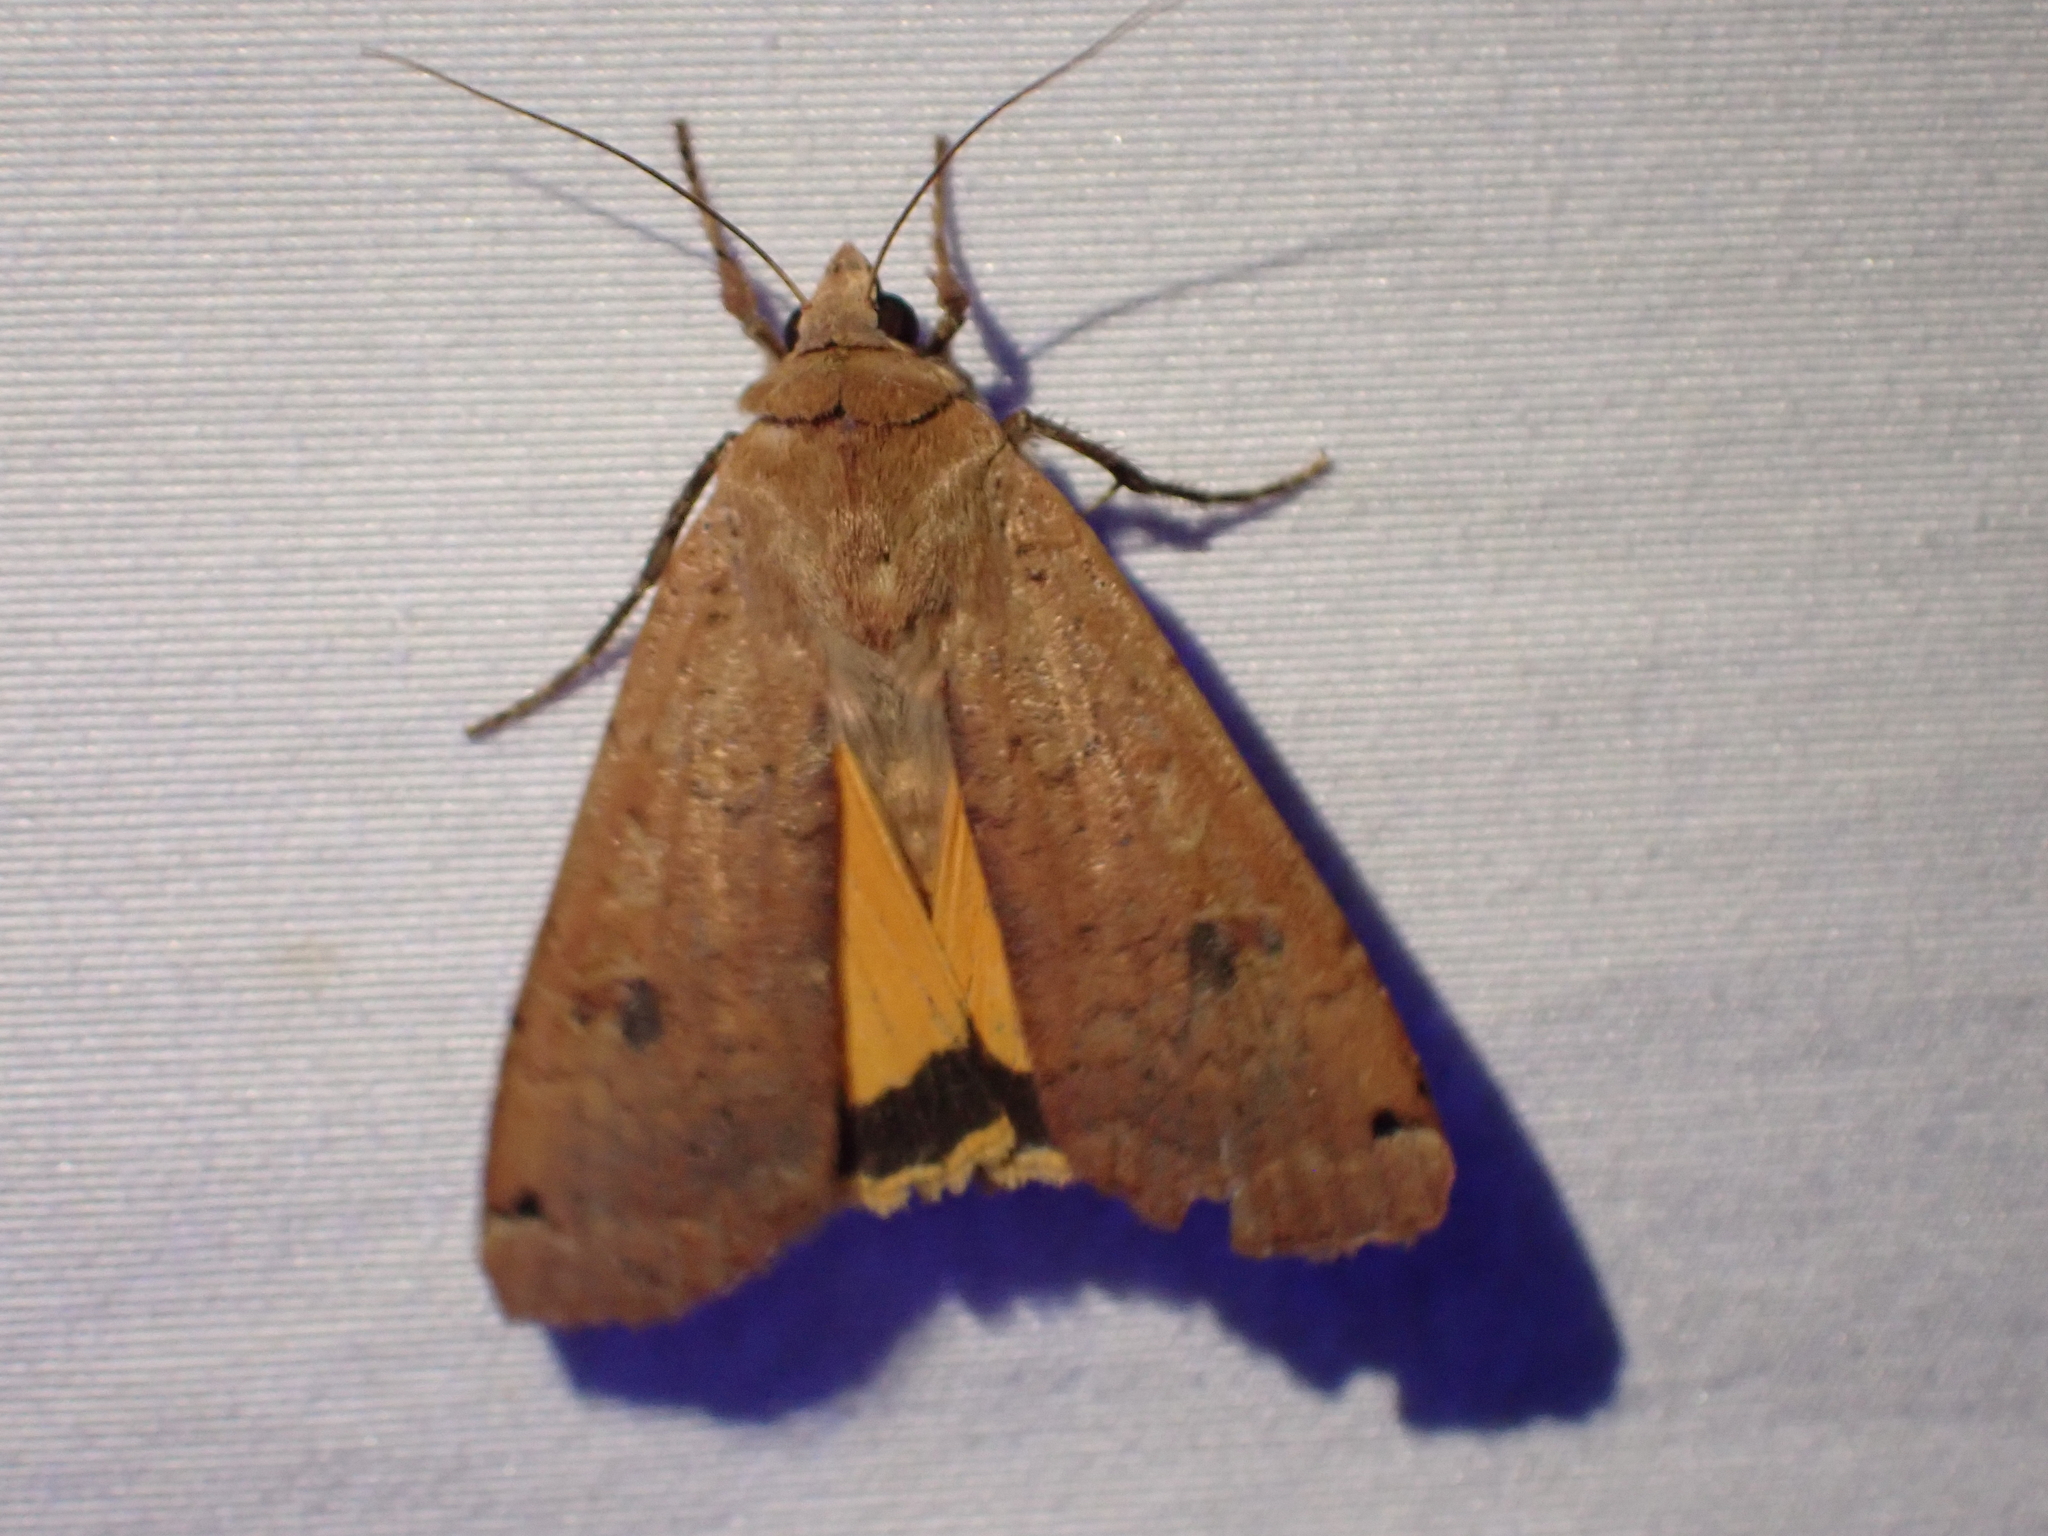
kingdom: Animalia
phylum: Arthropoda
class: Insecta
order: Lepidoptera
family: Noctuidae
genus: Noctua
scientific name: Noctua pronuba
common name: Large yellow underwing
